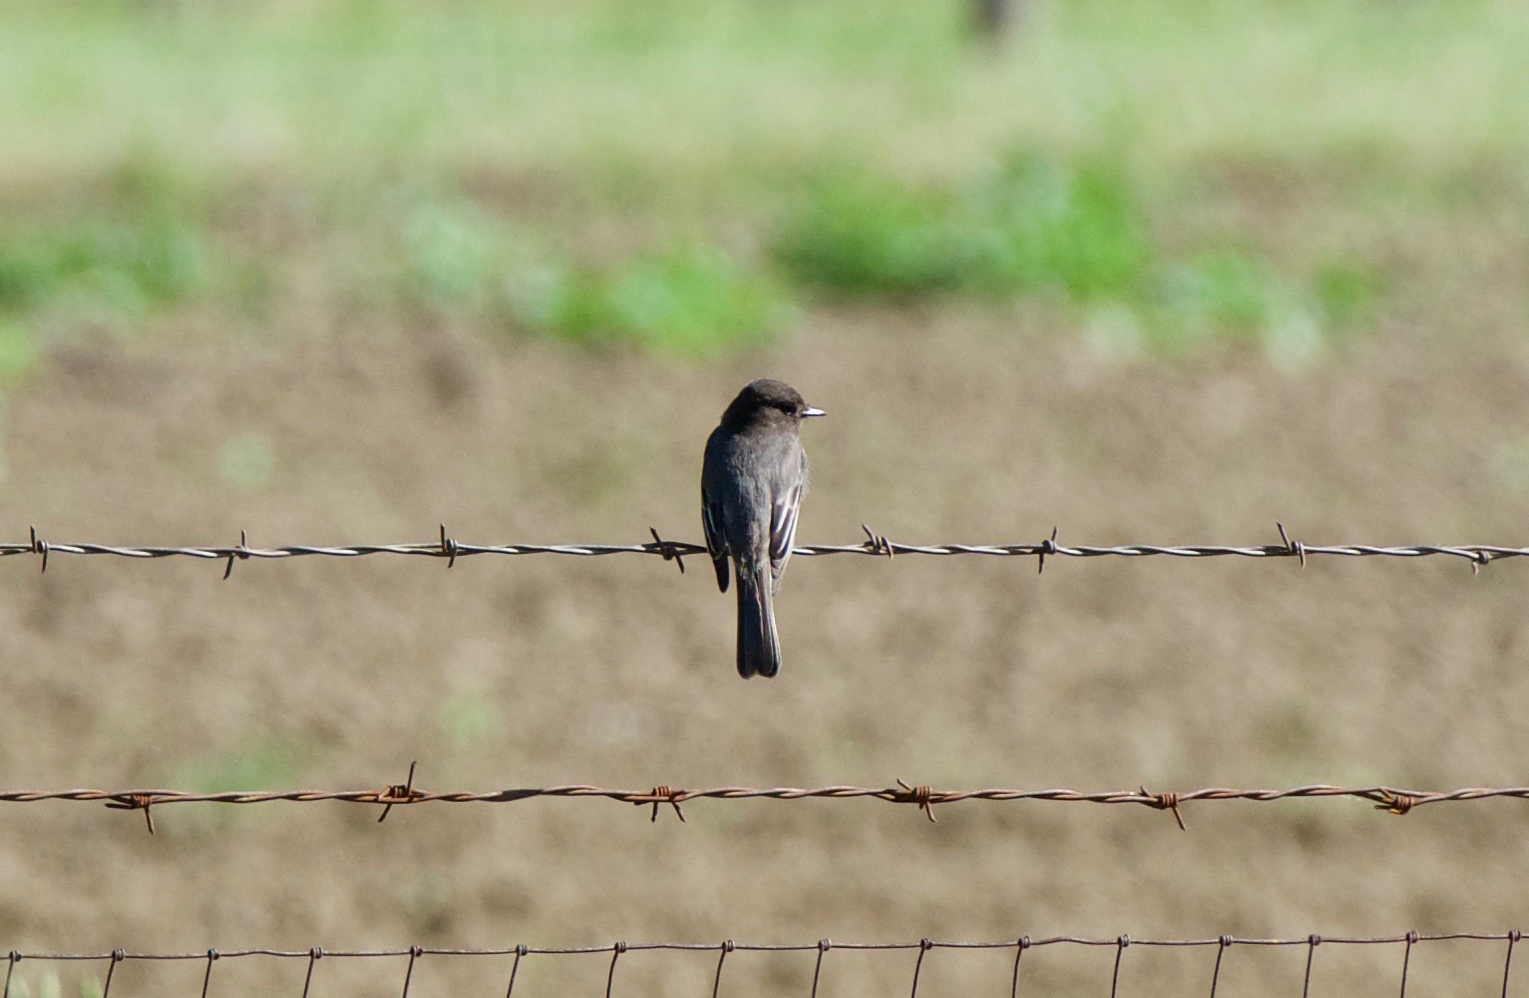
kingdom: Animalia
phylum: Chordata
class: Aves
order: Passeriformes
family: Tyrannidae
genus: Sayornis
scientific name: Sayornis nigricans
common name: Black phoebe
